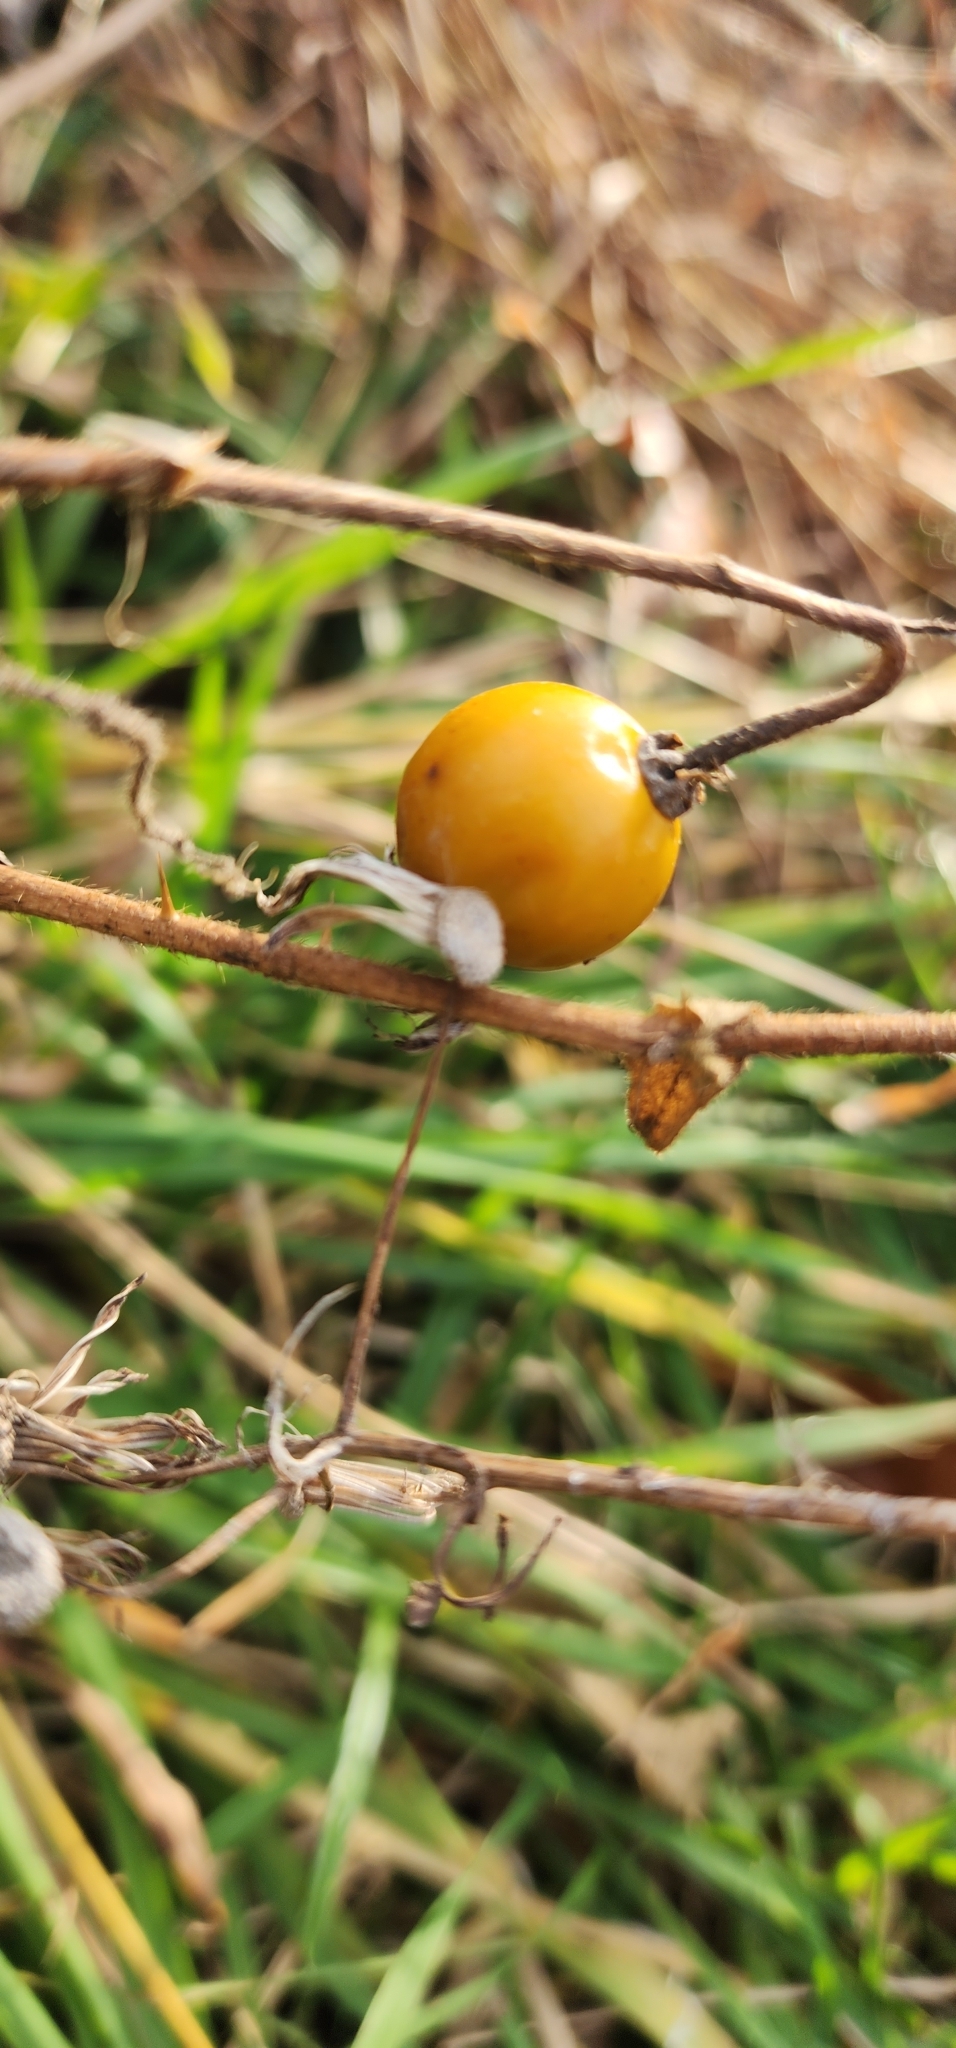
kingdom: Plantae
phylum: Tracheophyta
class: Magnoliopsida
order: Solanales
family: Solanaceae
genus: Solanum
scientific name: Solanum carolinense
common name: Horse-nettle
